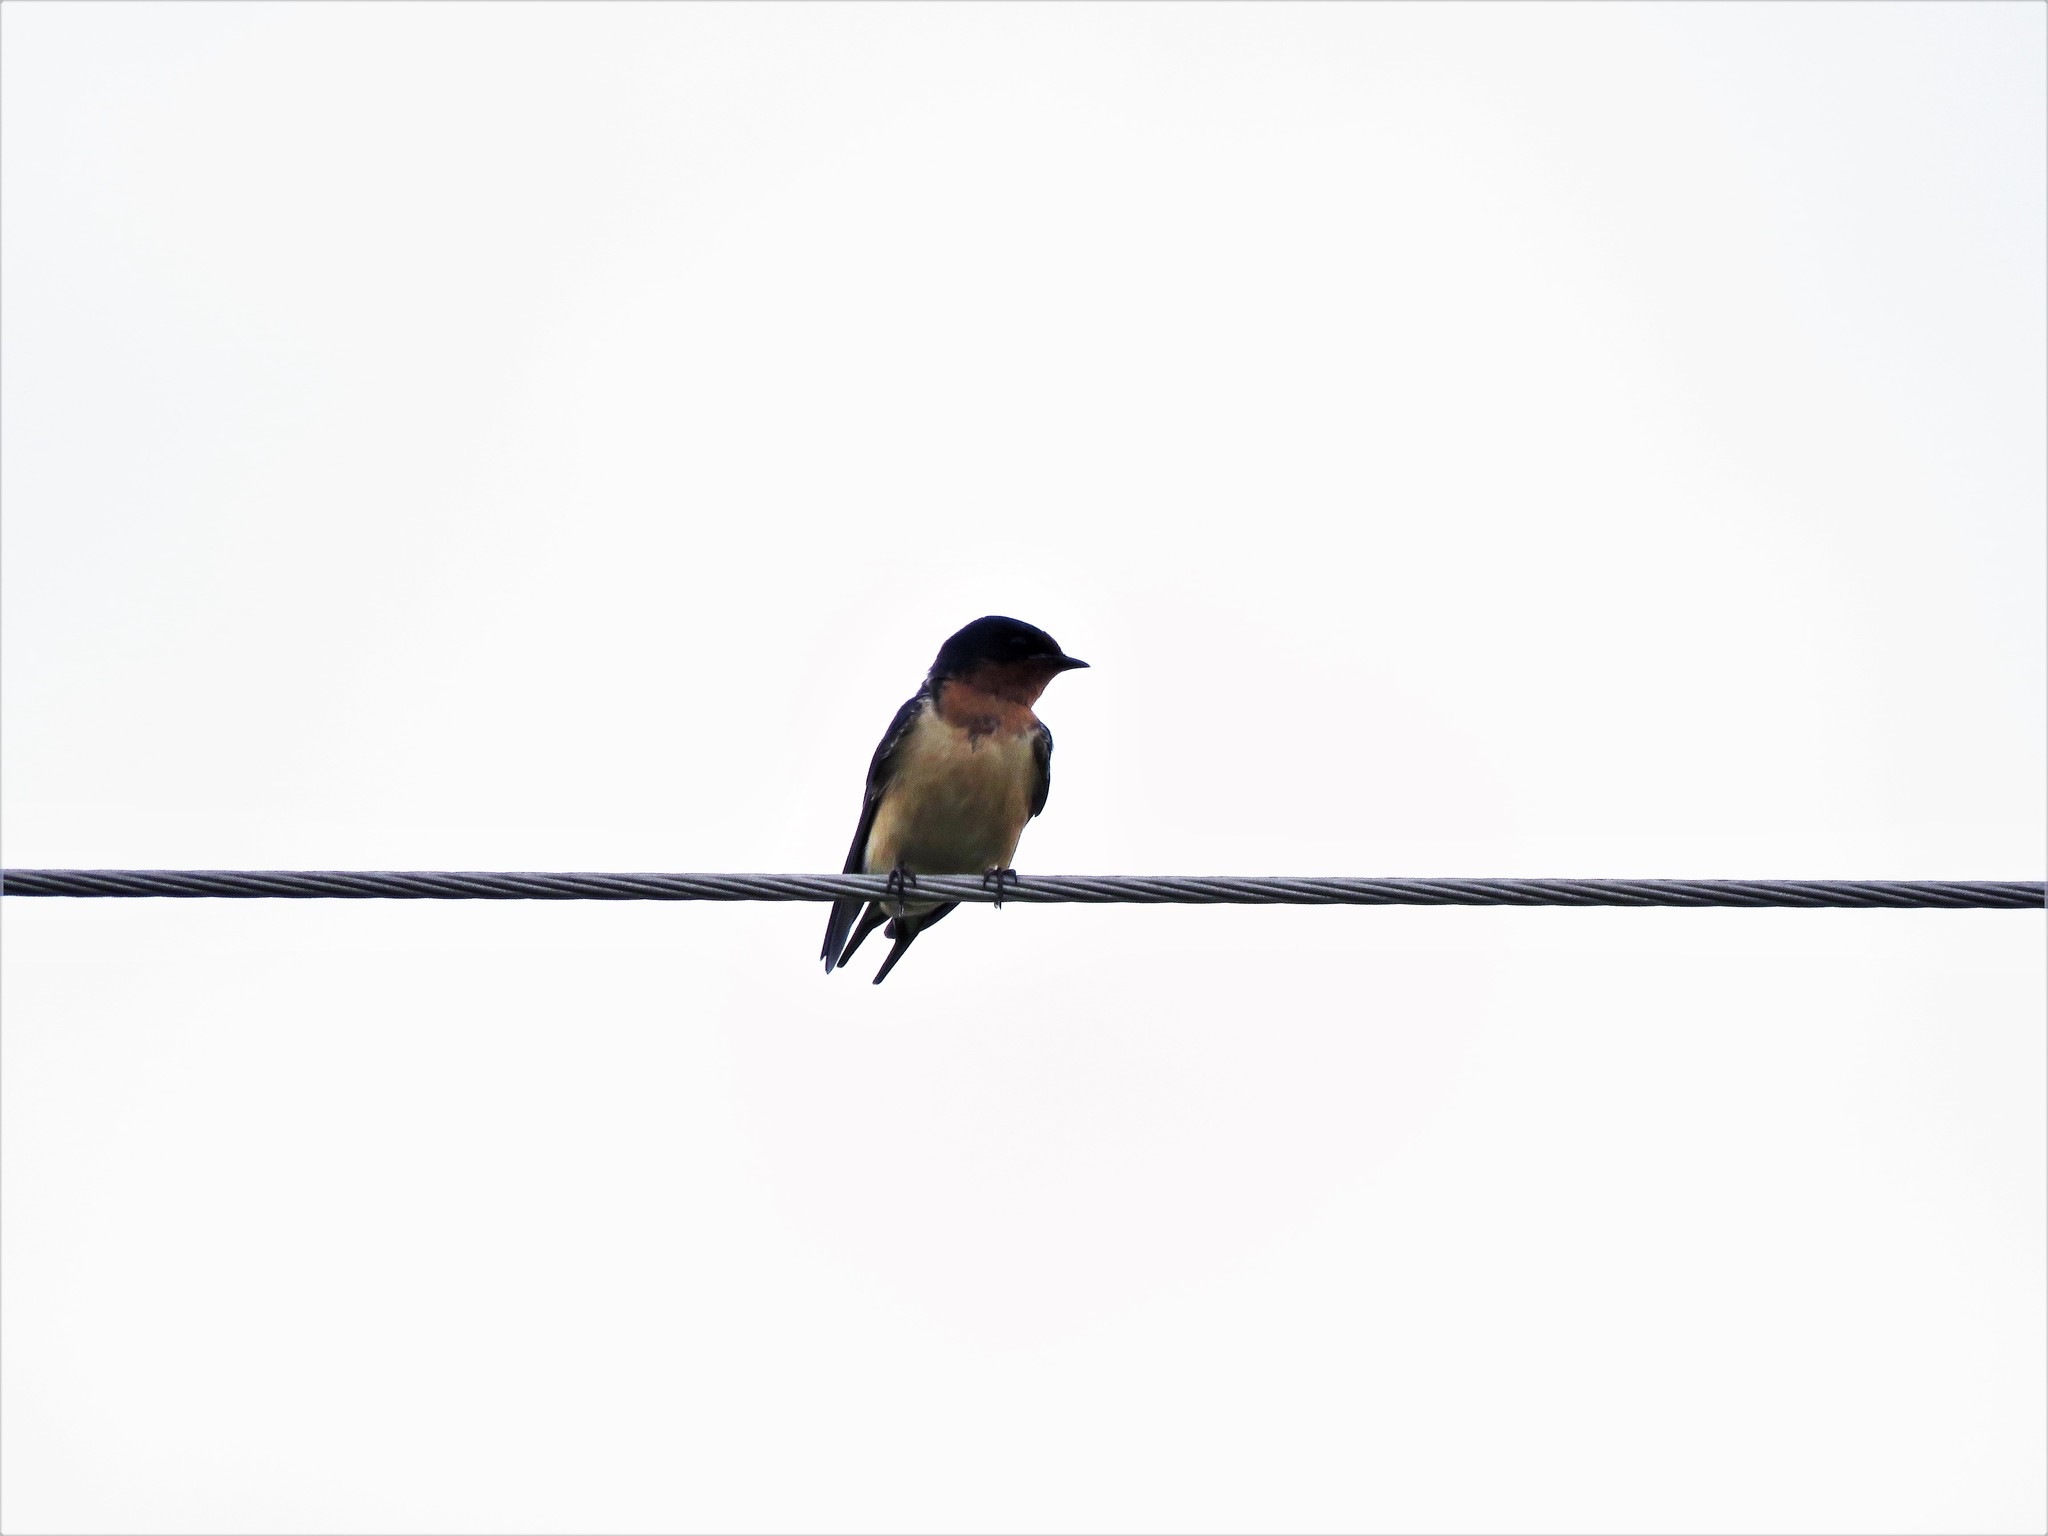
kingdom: Animalia
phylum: Chordata
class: Aves
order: Passeriformes
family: Hirundinidae
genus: Hirundo
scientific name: Hirundo rustica
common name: Barn swallow
